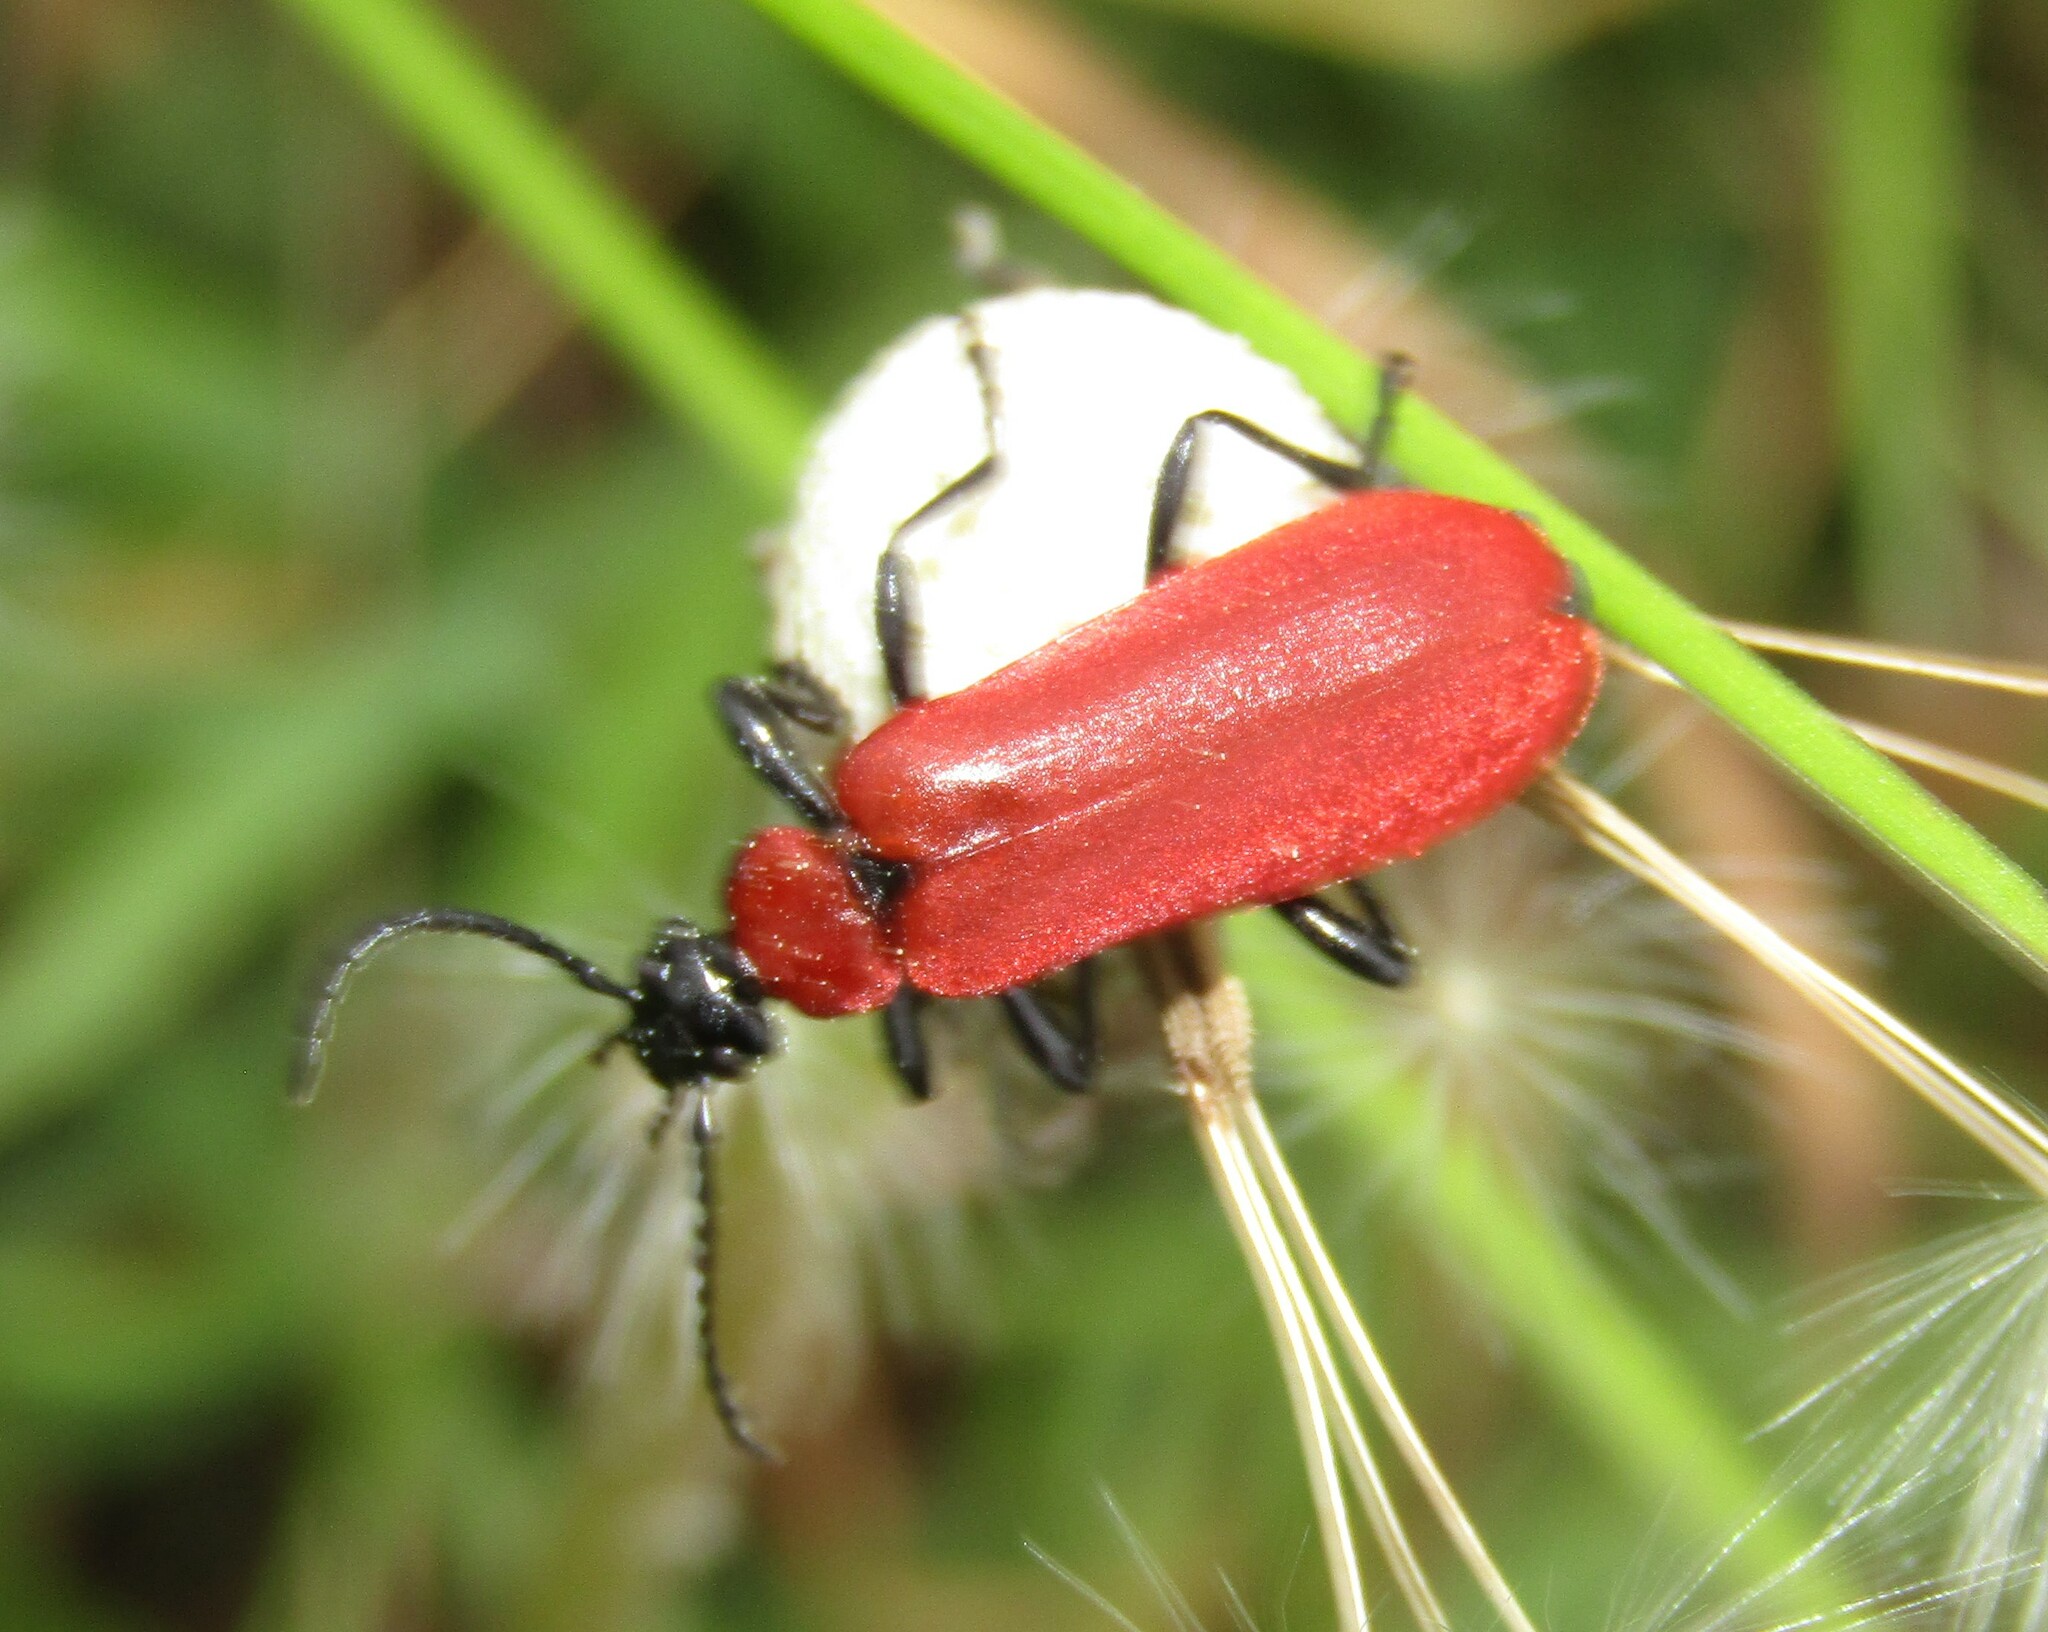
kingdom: Animalia
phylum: Arthropoda
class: Insecta
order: Coleoptera
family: Pyrochroidae
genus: Pyrochroa
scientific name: Pyrochroa coccinea
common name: Black-headed cardinal beetle
